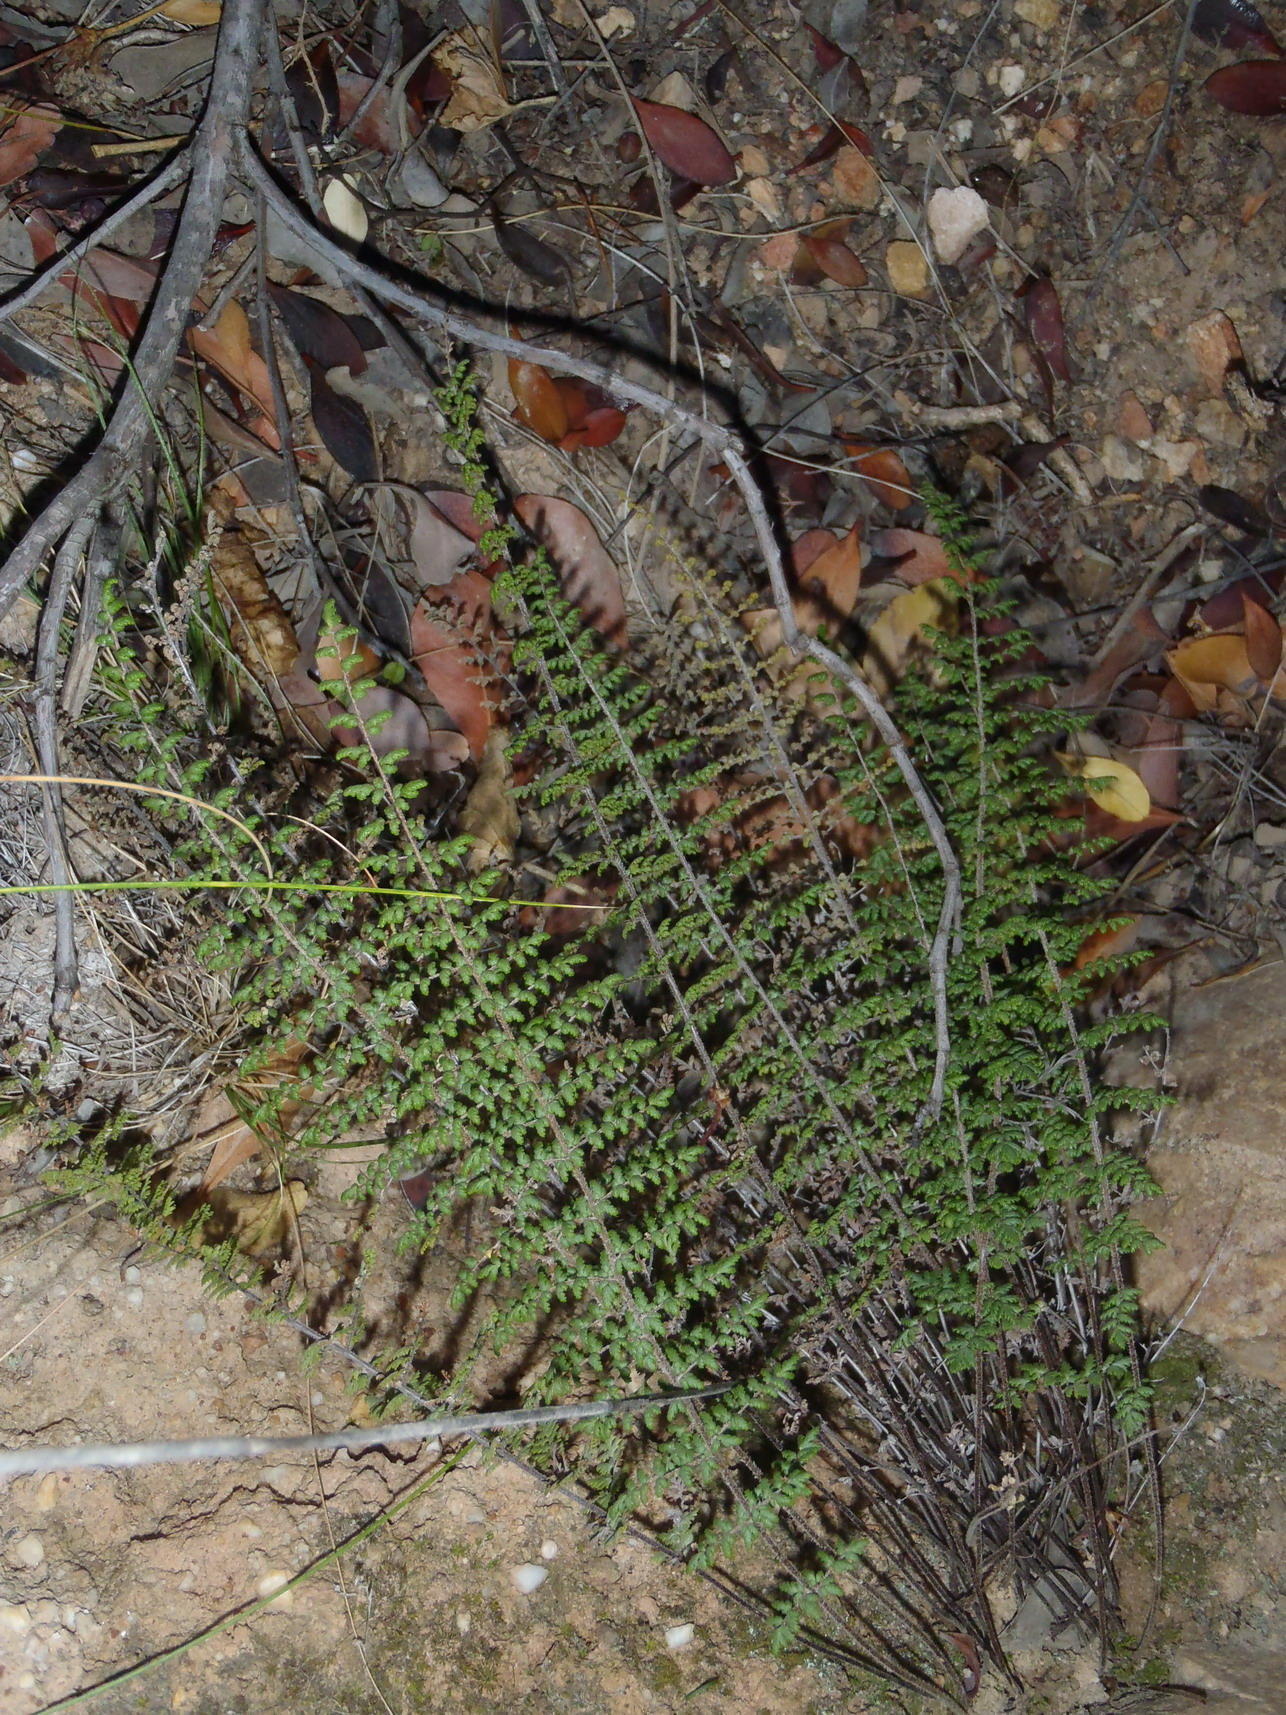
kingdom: Plantae
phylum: Tracheophyta
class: Polypodiopsida
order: Polypodiales
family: Pteridaceae
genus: Cheilanthes
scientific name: Cheilanthes parviloba
